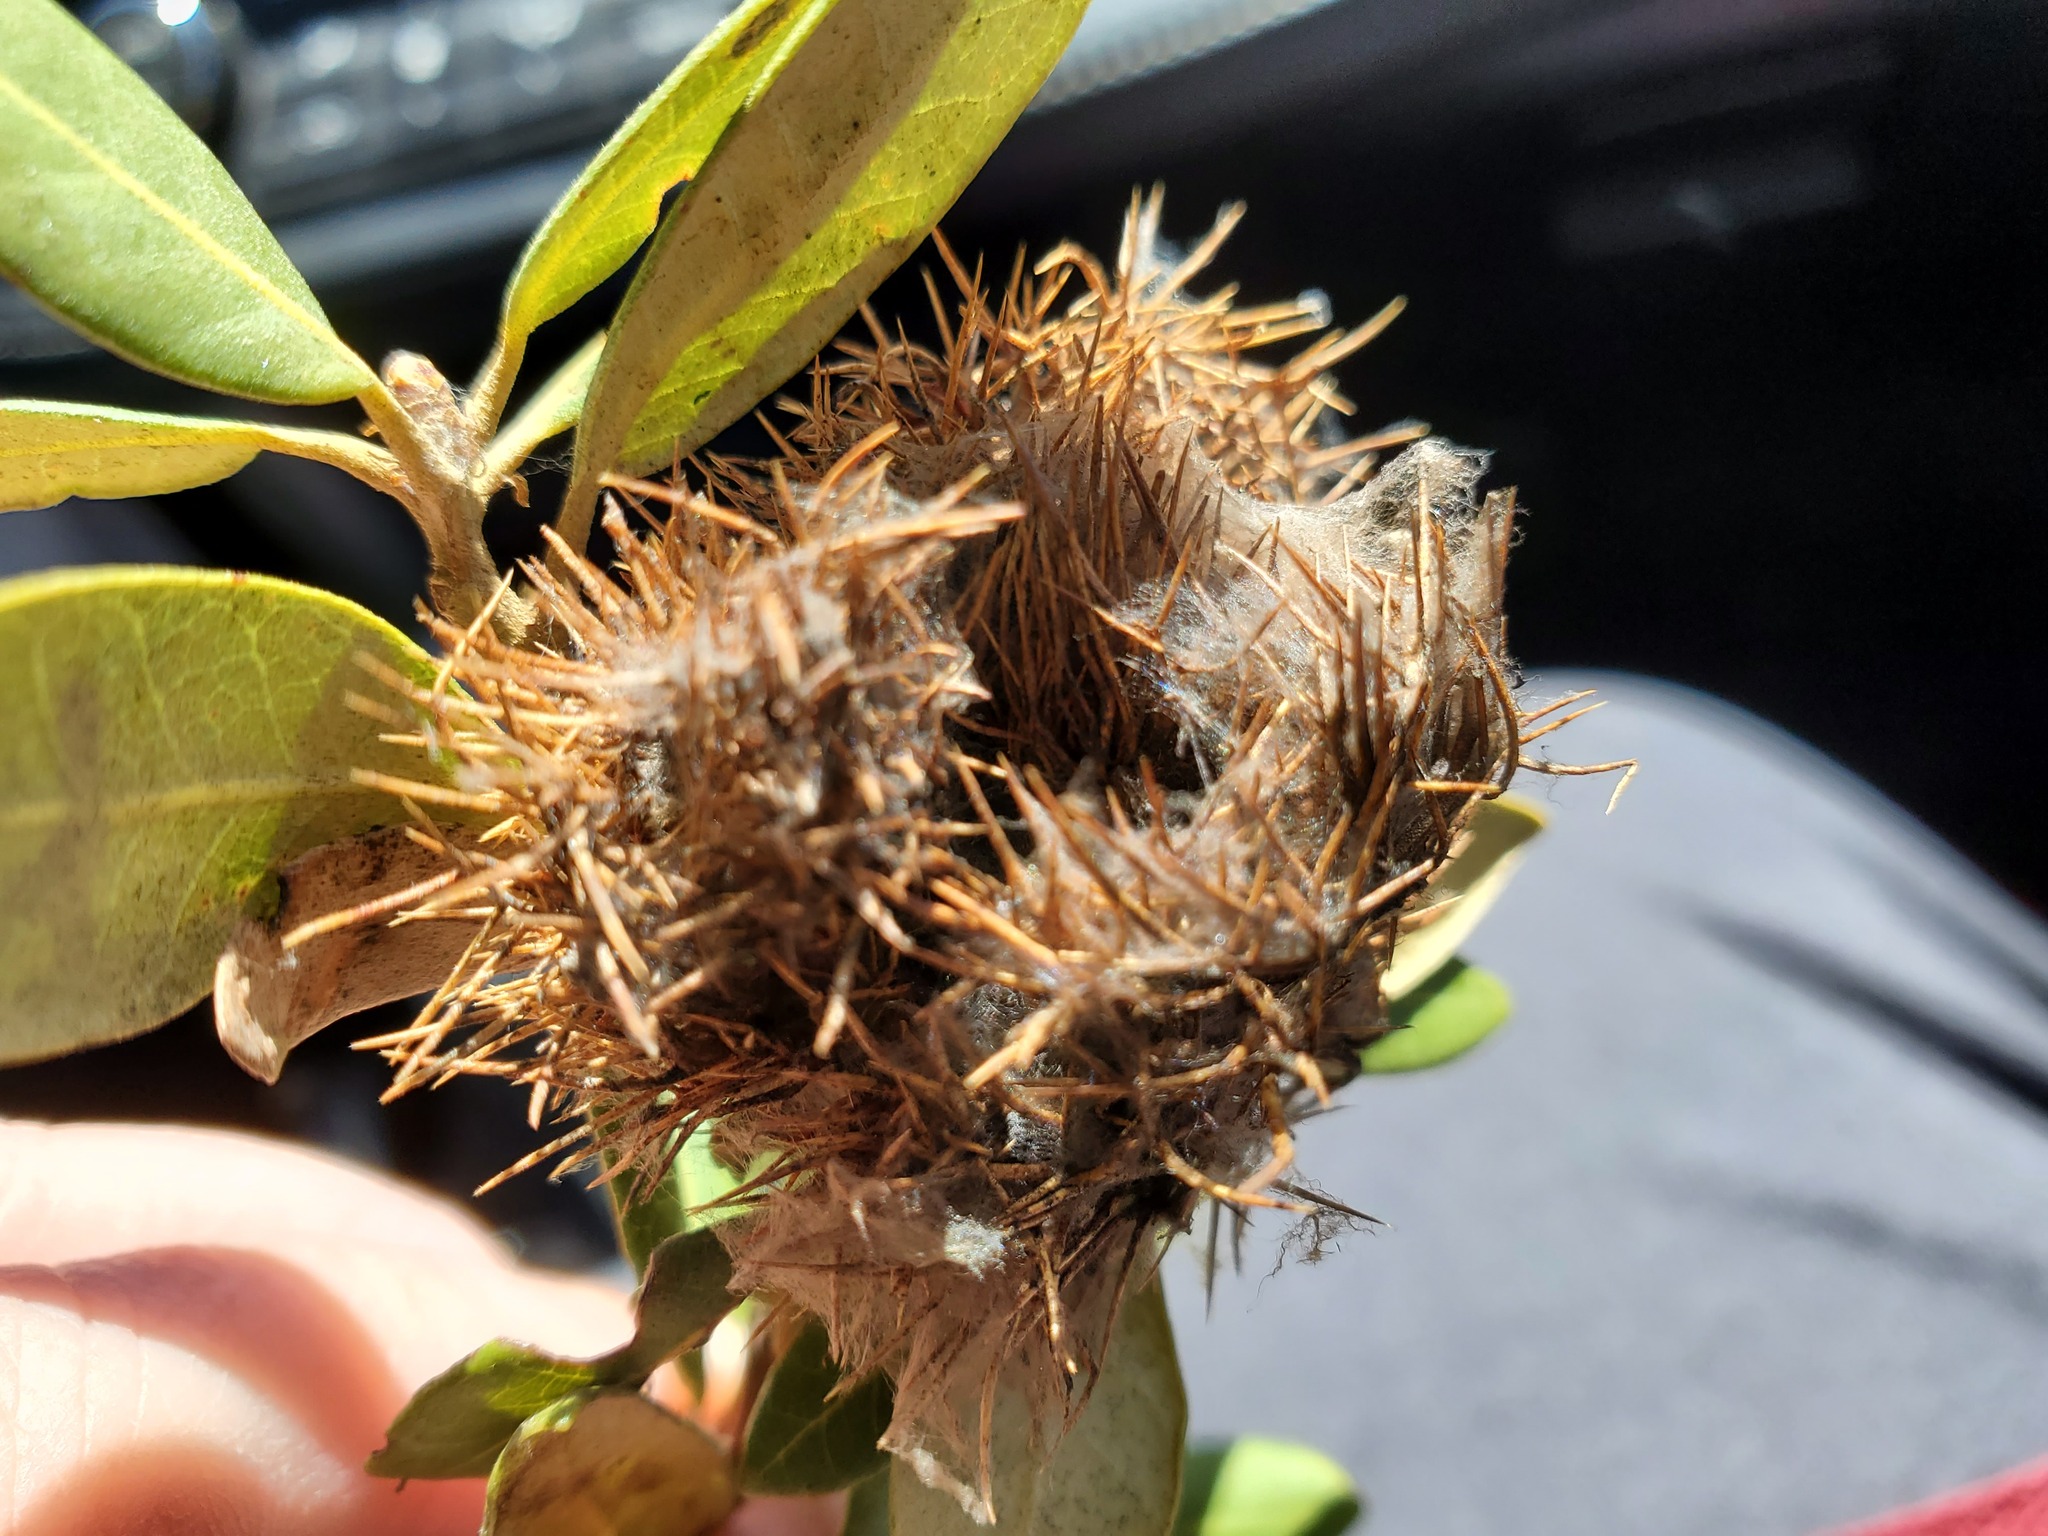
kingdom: Plantae
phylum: Tracheophyta
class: Magnoliopsida
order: Fagales
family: Fagaceae
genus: Chrysolepis
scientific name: Chrysolepis sempervirens
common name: Bush chinquapin
